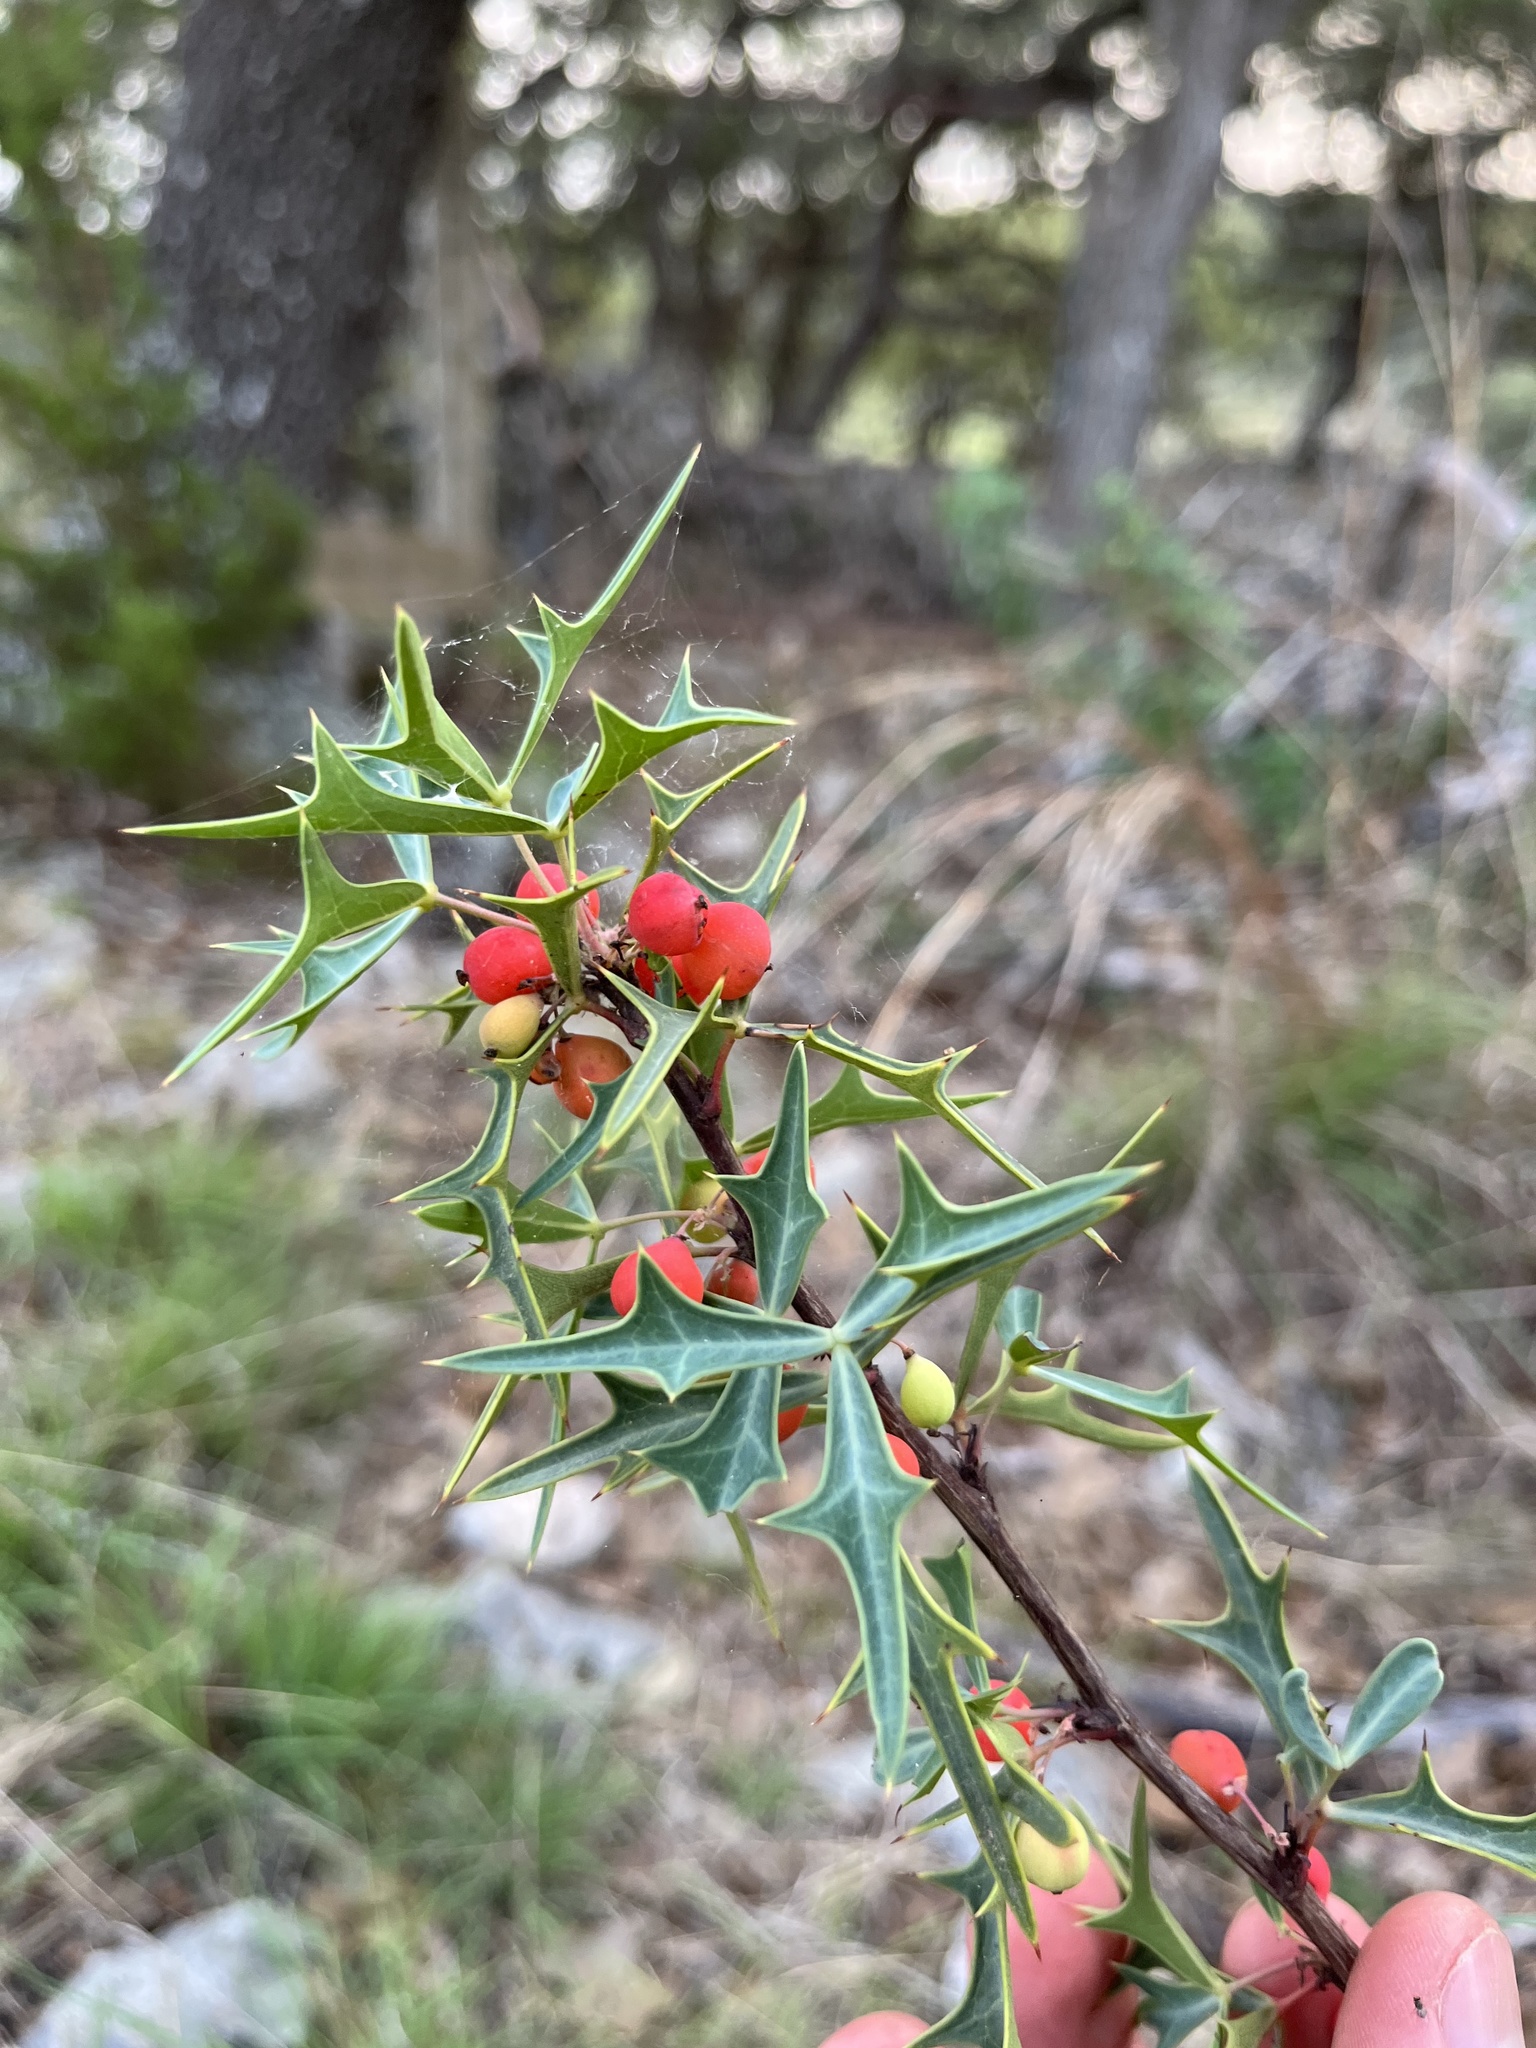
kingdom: Plantae
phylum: Tracheophyta
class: Magnoliopsida
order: Ranunculales
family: Berberidaceae
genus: Alloberberis
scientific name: Alloberberis trifoliolata
